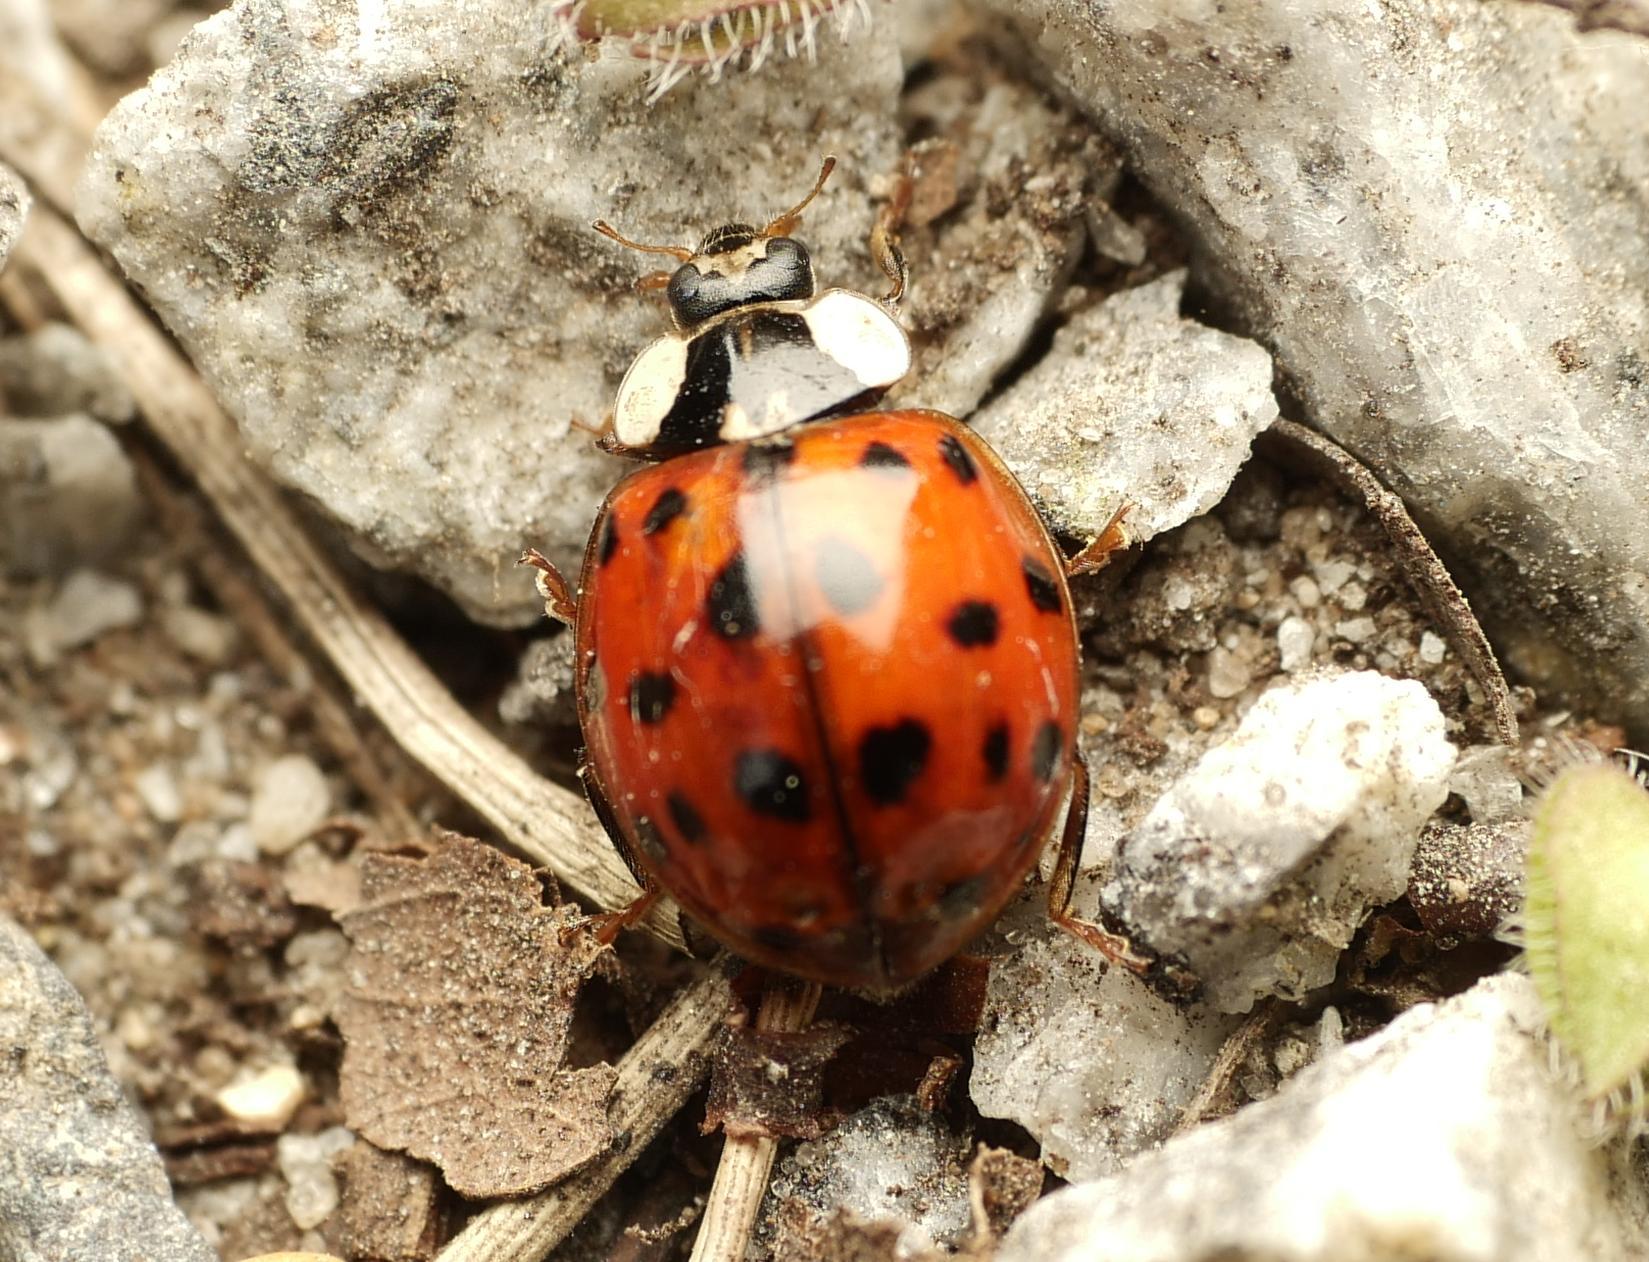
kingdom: Animalia
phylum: Arthropoda
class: Insecta
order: Coleoptera
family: Coccinellidae
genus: Harmonia
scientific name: Harmonia axyridis
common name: Harlequin ladybird
